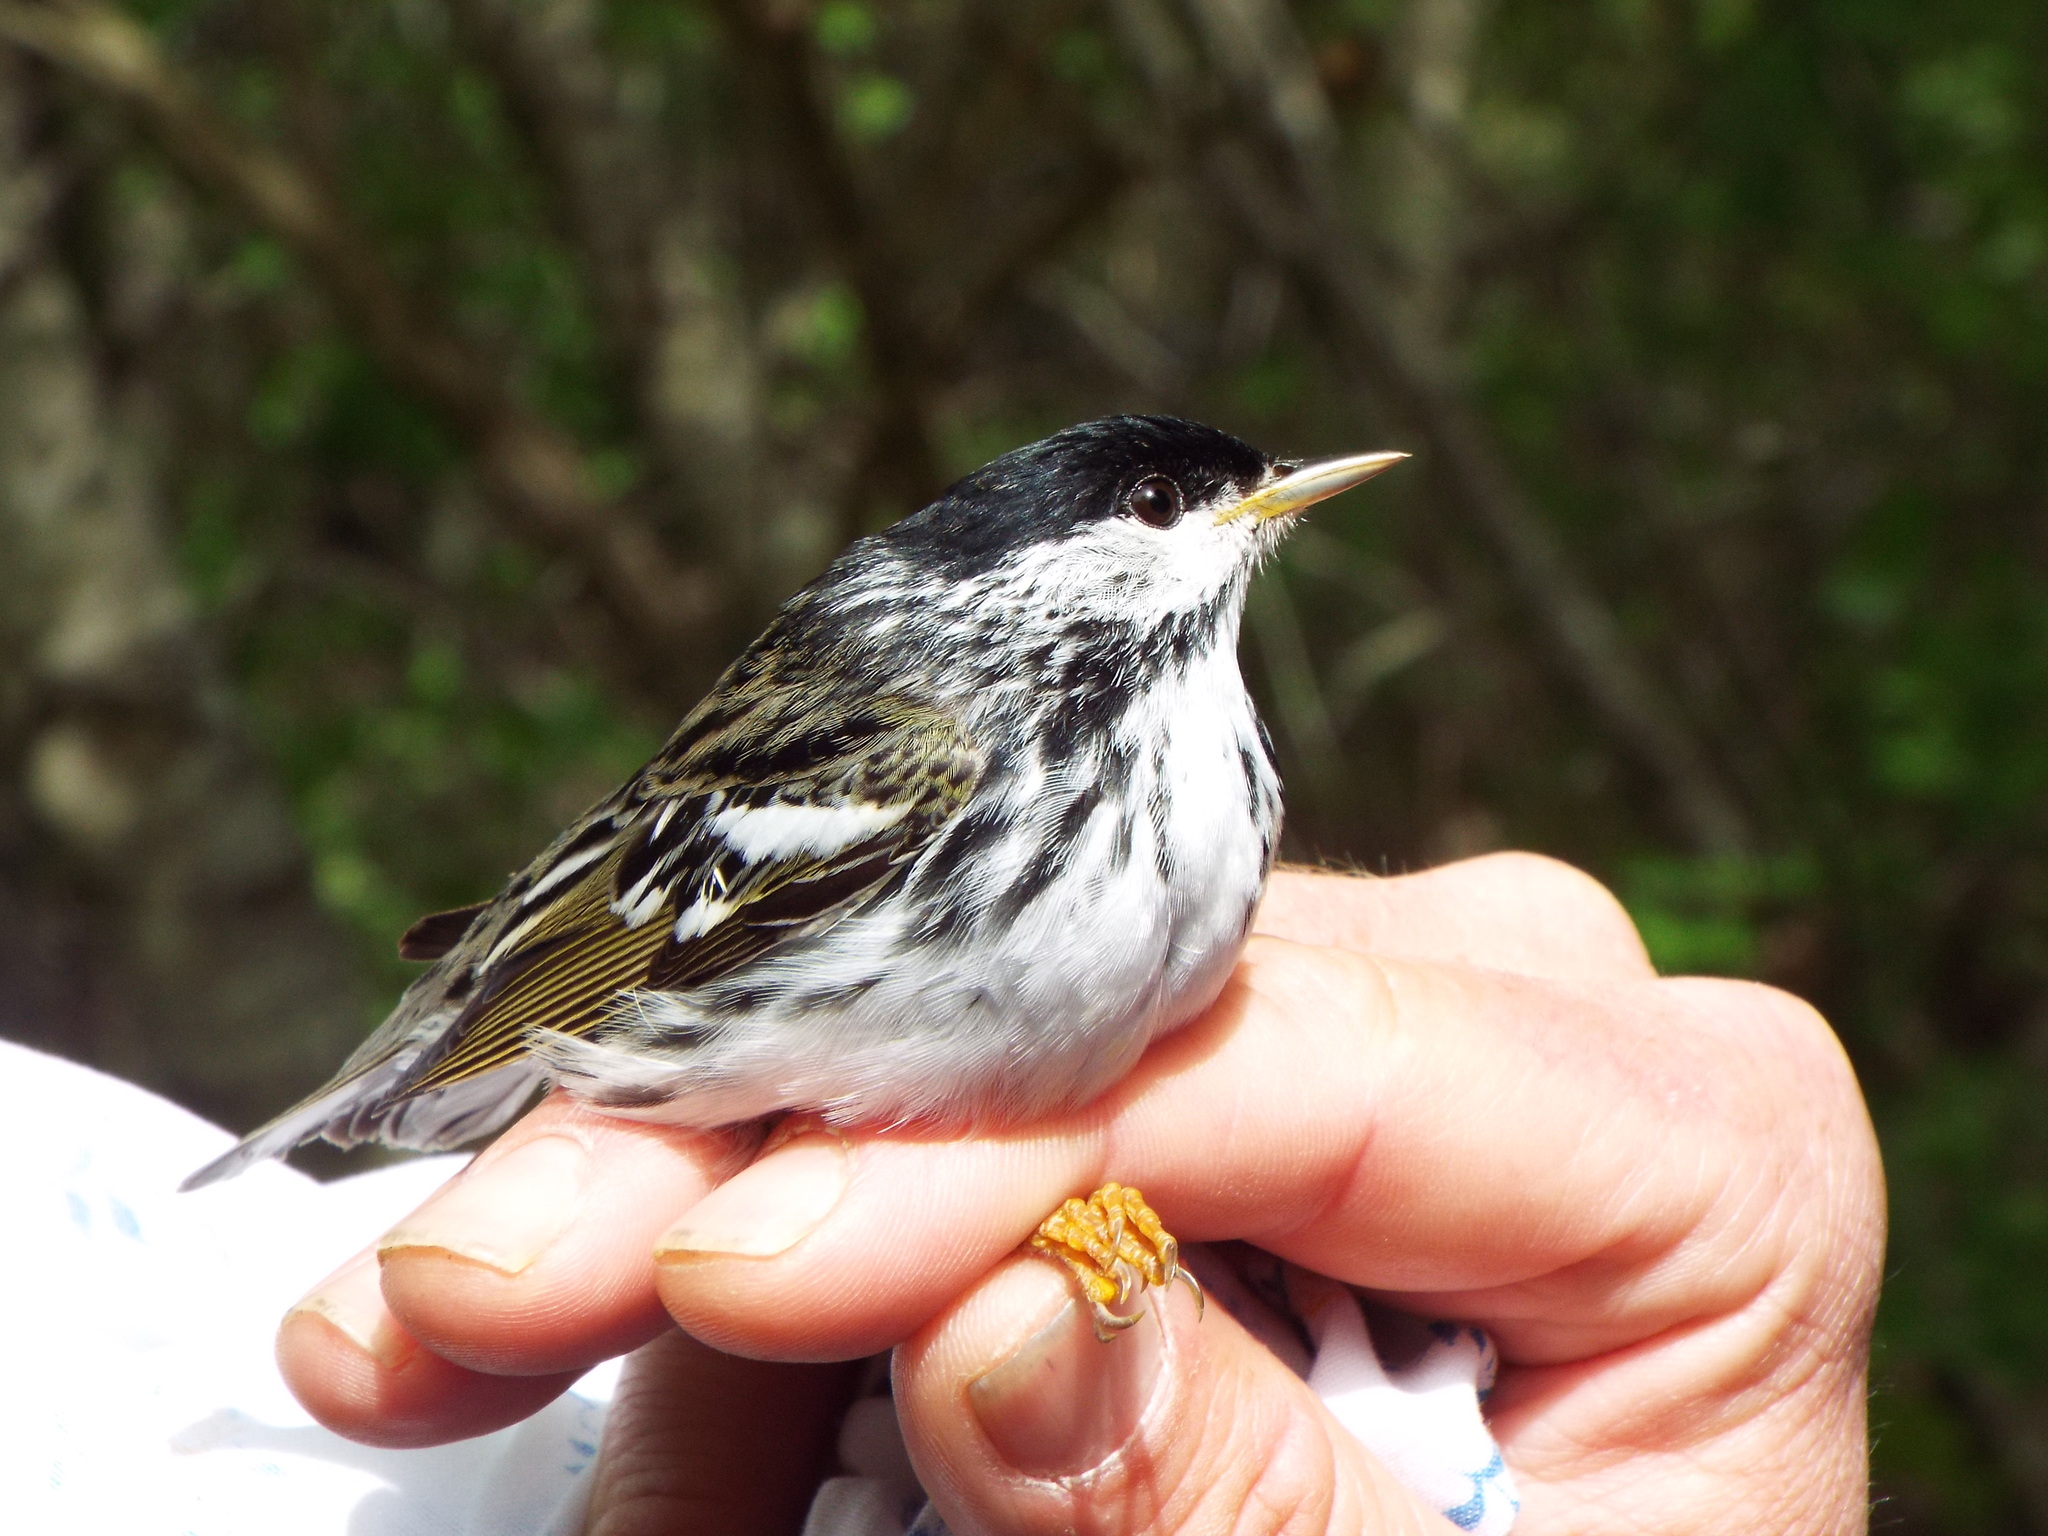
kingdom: Animalia
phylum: Chordata
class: Aves
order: Passeriformes
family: Parulidae
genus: Setophaga
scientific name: Setophaga striata
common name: Blackpoll warbler
